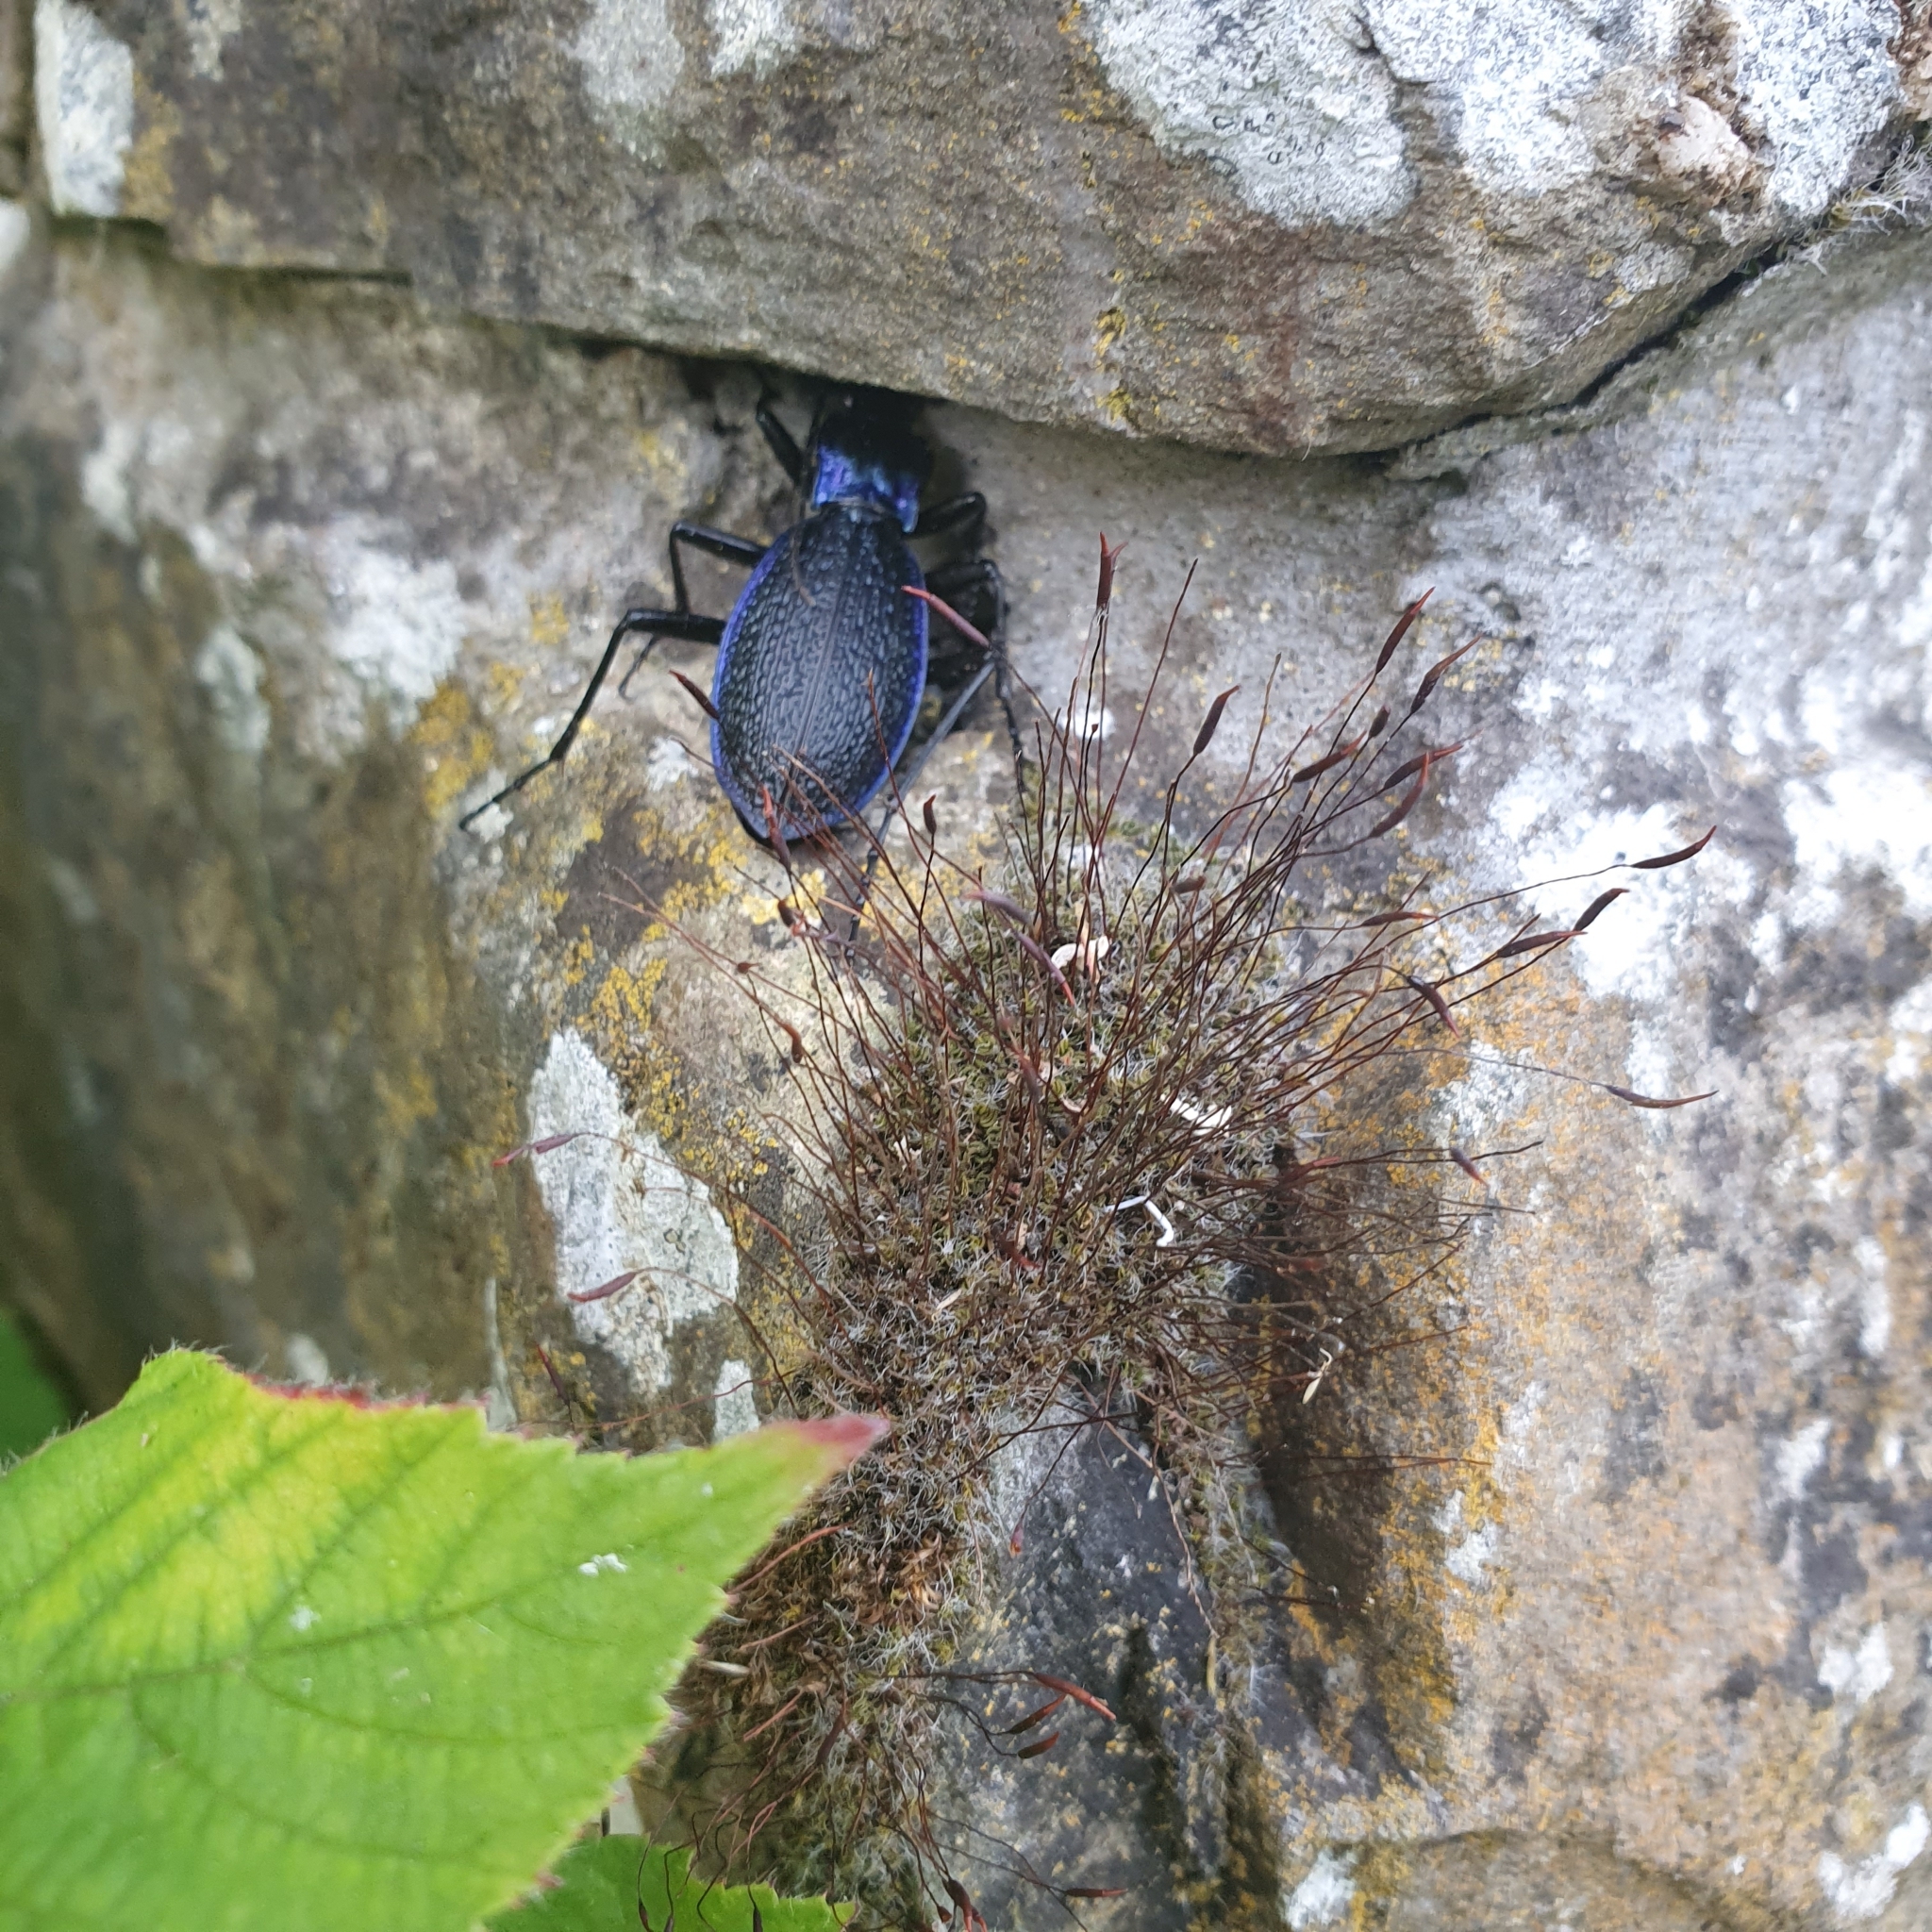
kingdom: Animalia
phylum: Arthropoda
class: Insecta
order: Coleoptera
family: Carabidae
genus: Carabus
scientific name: Carabus intricatus
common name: Blue ground beetle
